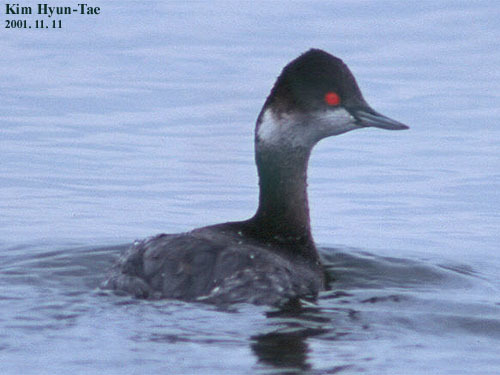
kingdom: Animalia
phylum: Chordata
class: Aves
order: Podicipediformes
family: Podicipedidae
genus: Podiceps
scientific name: Podiceps nigricollis
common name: Black-necked grebe
